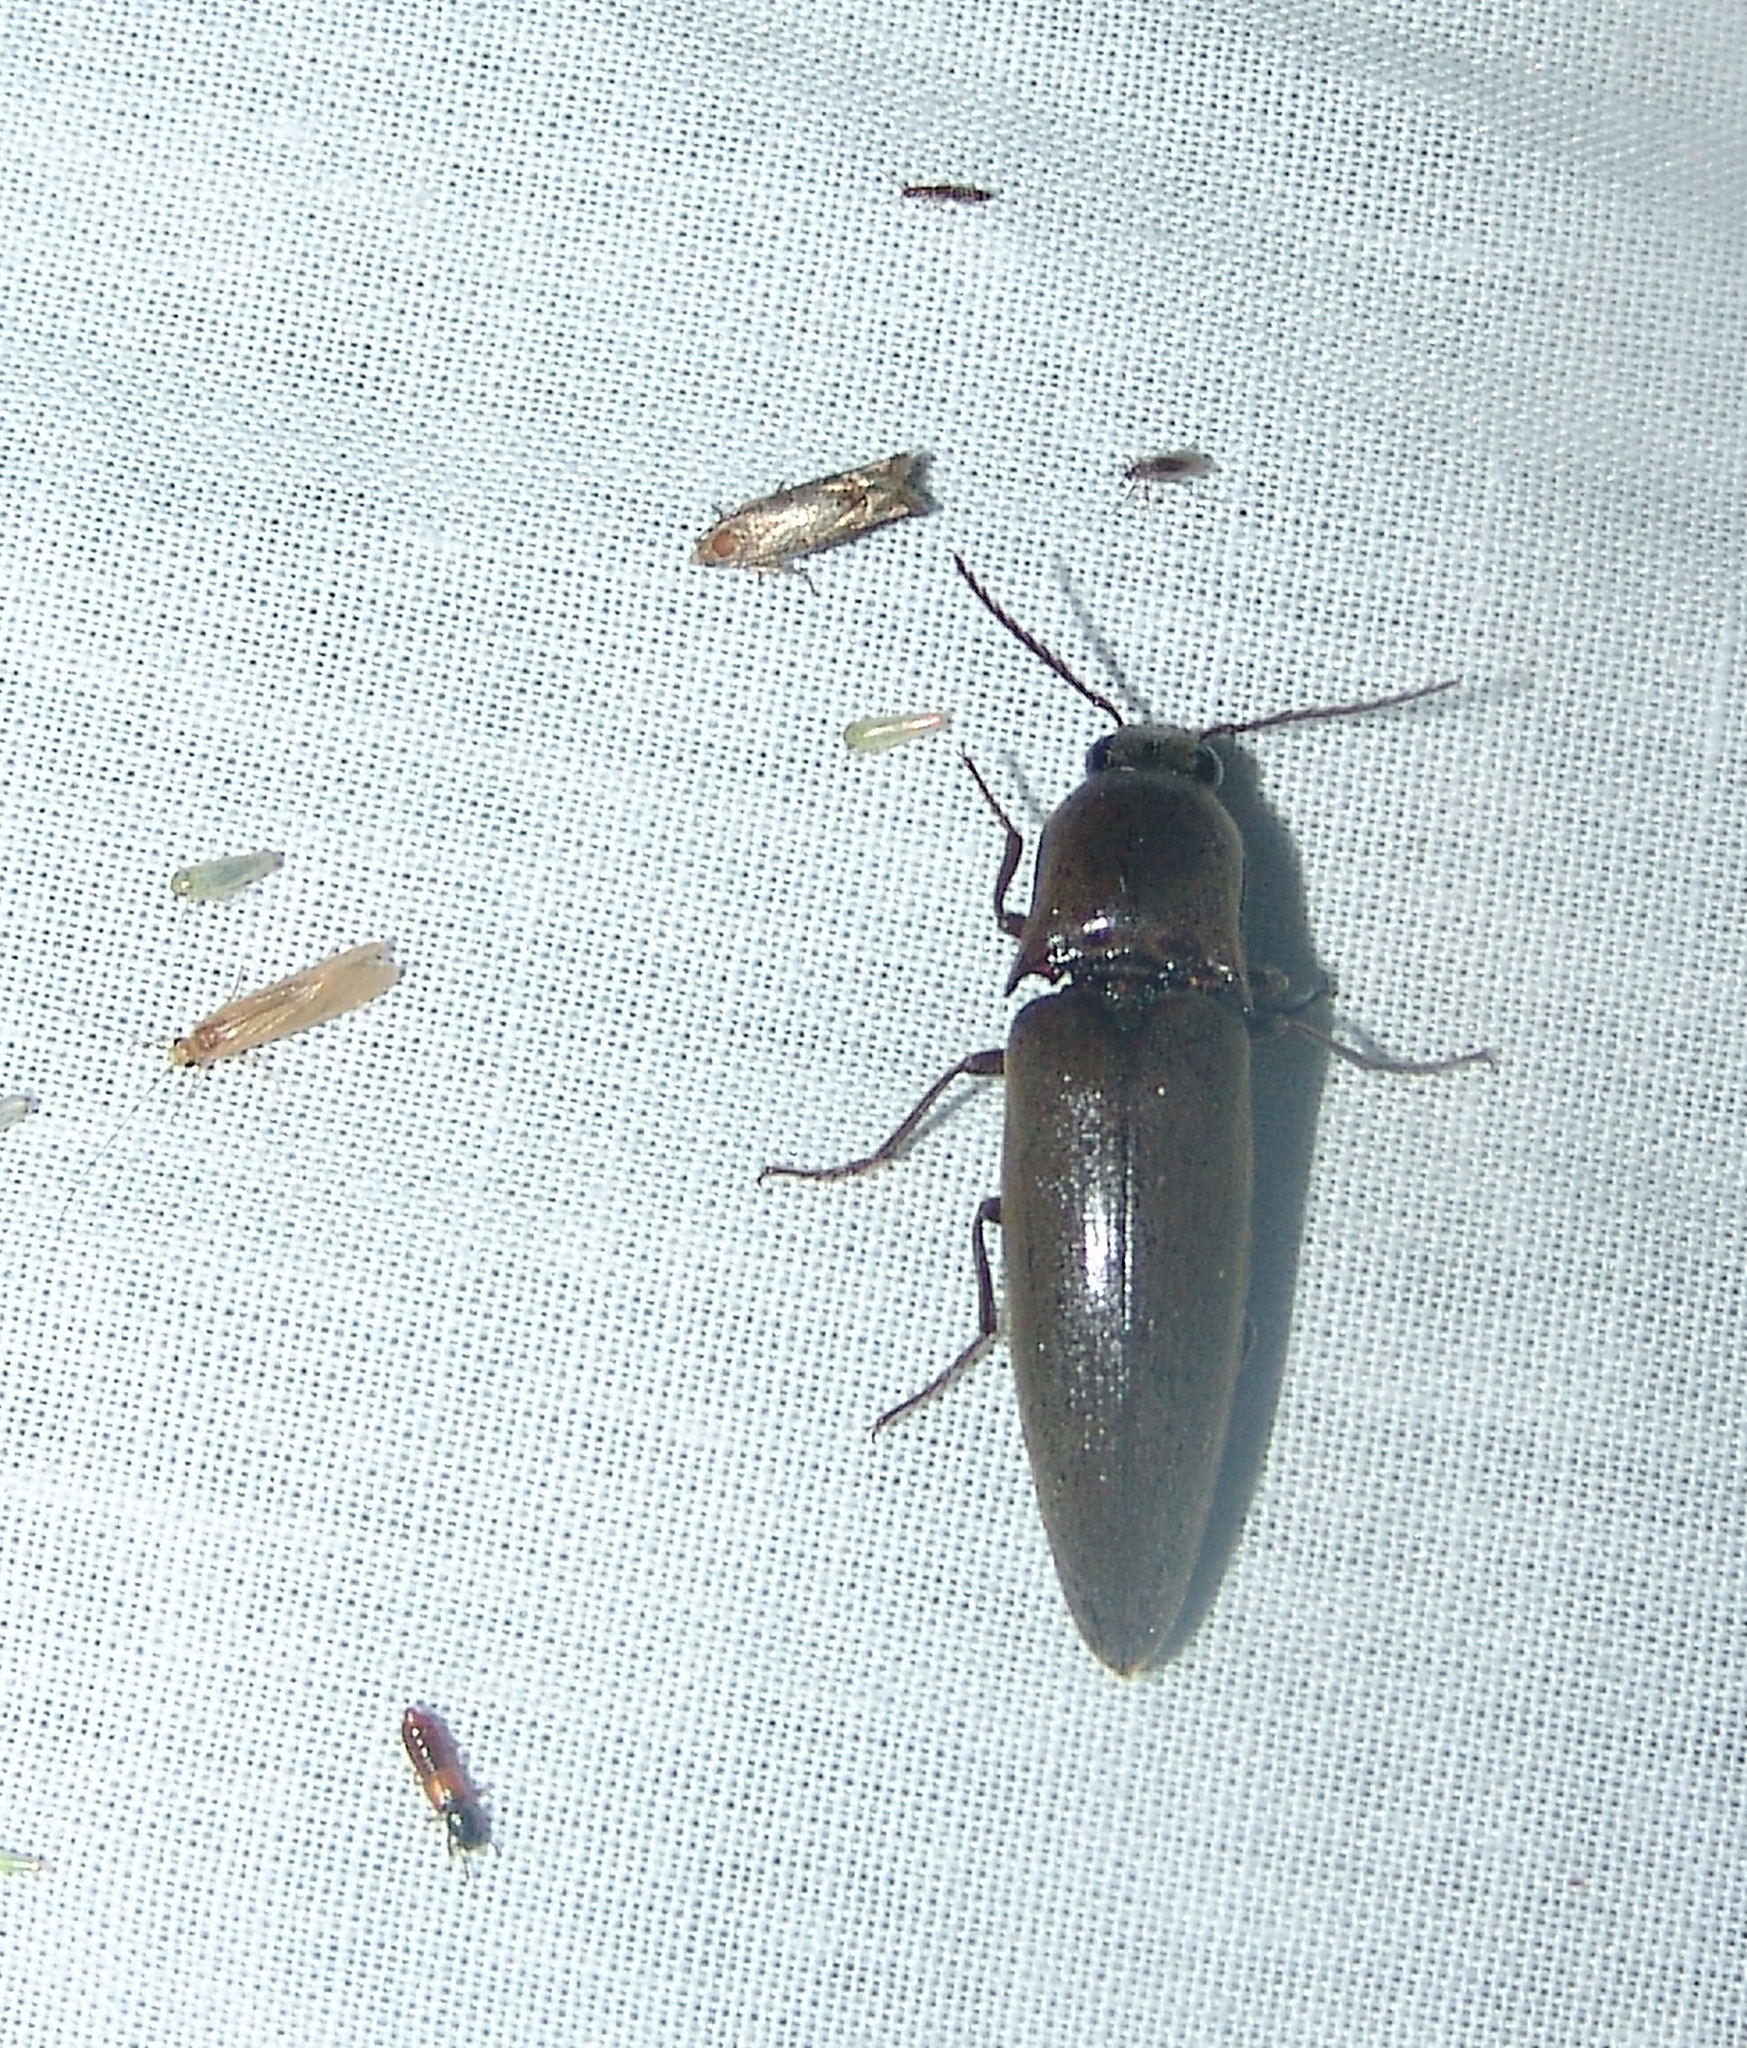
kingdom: Animalia
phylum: Arthropoda
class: Insecta
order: Coleoptera
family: Elateridae
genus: Orthostethus
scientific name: Orthostethus infuscatus
